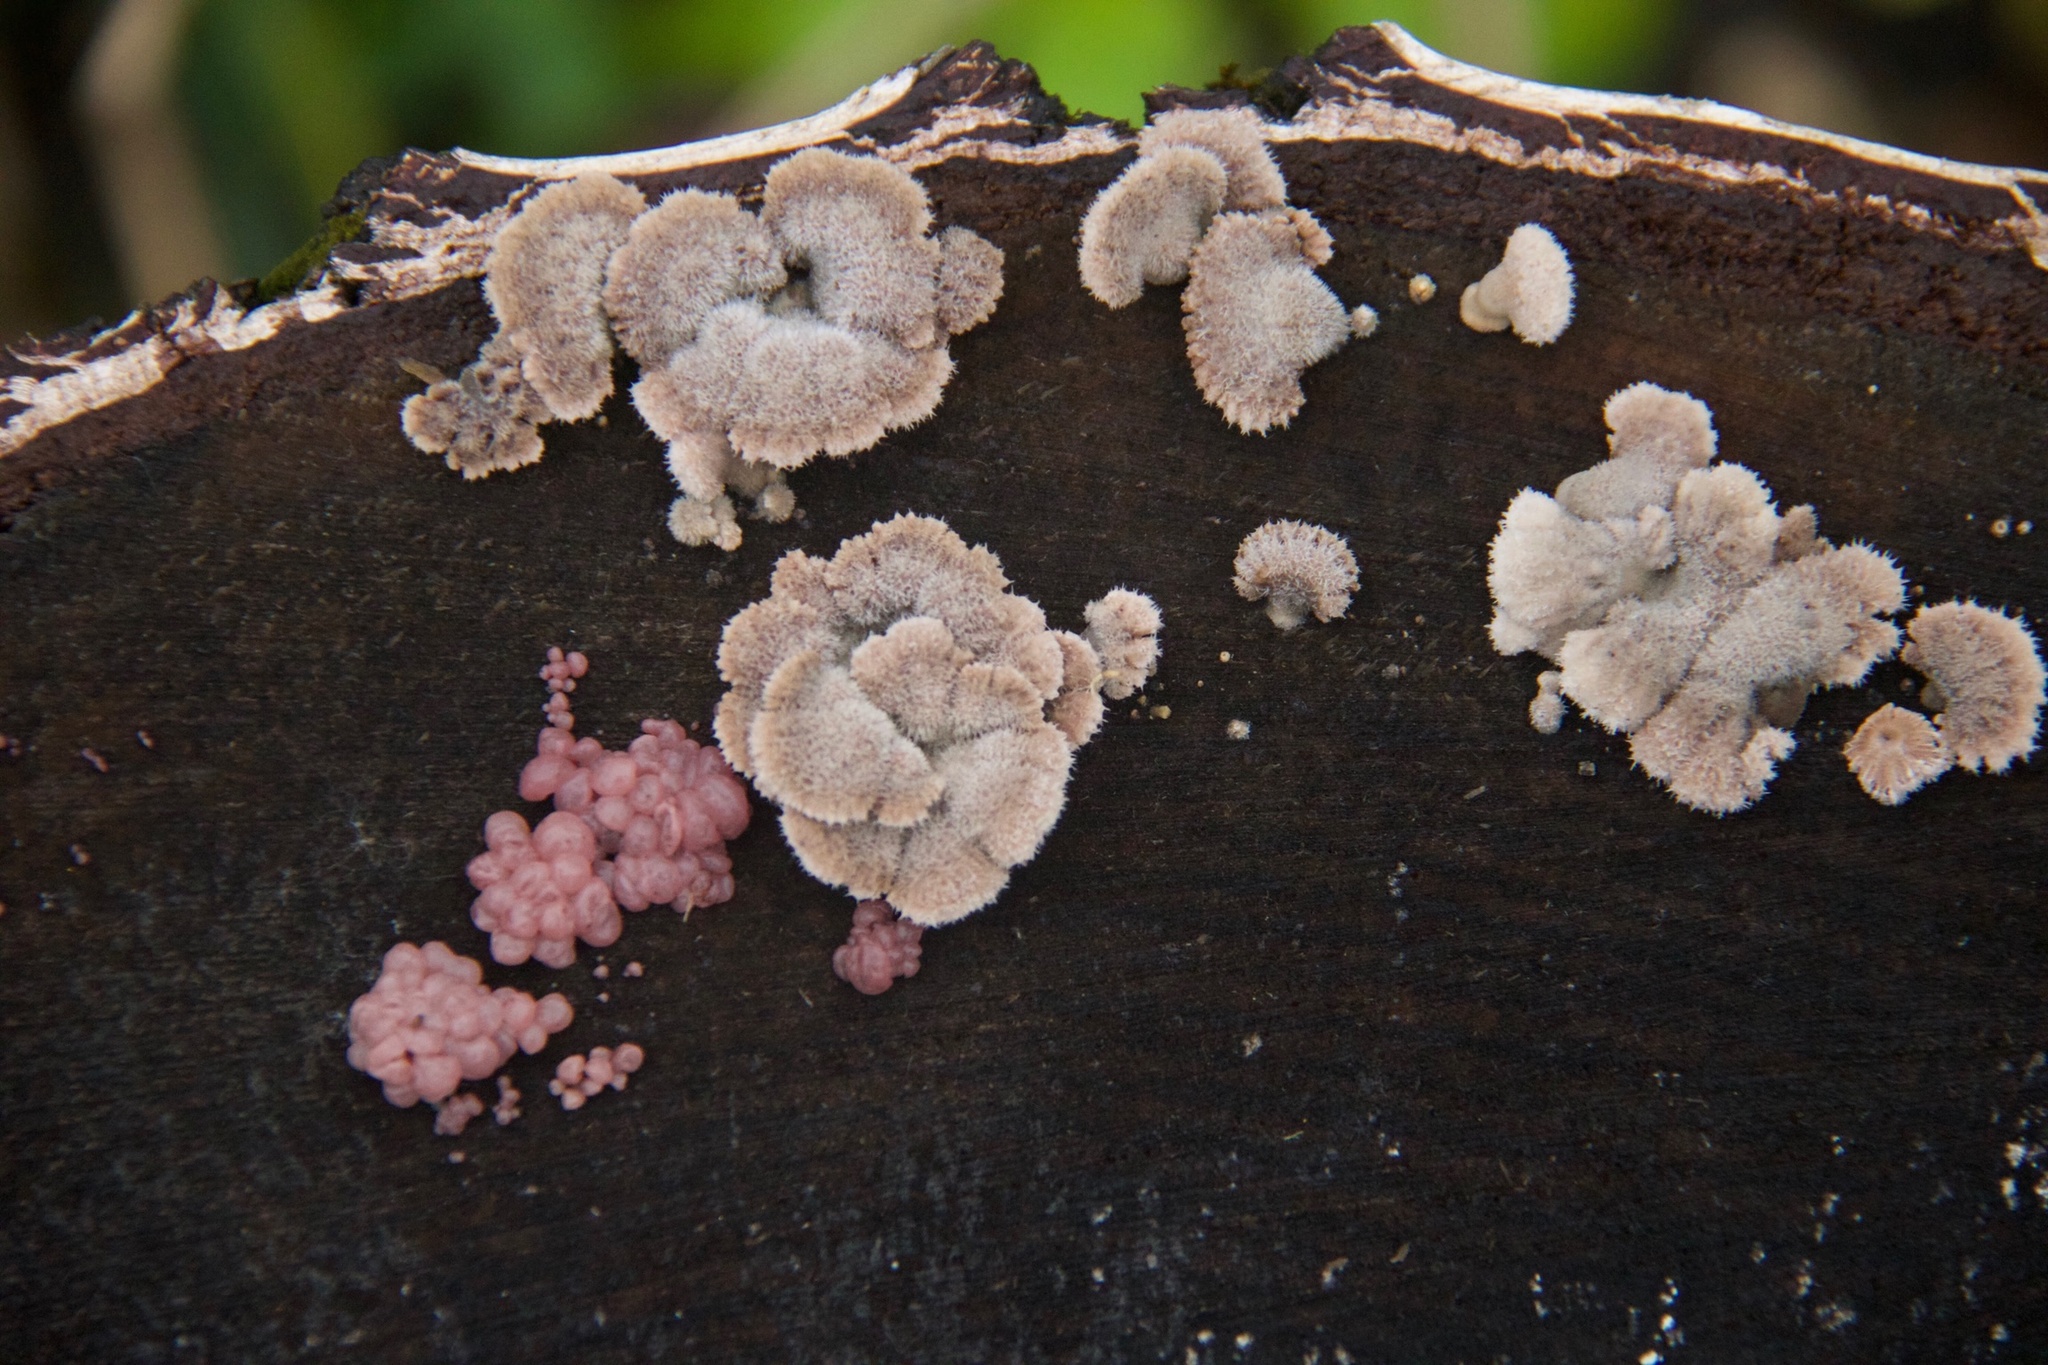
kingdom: Fungi
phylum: Basidiomycota
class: Agaricomycetes
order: Agaricales
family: Schizophyllaceae
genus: Schizophyllum
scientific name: Schizophyllum commune
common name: Common porecrust
